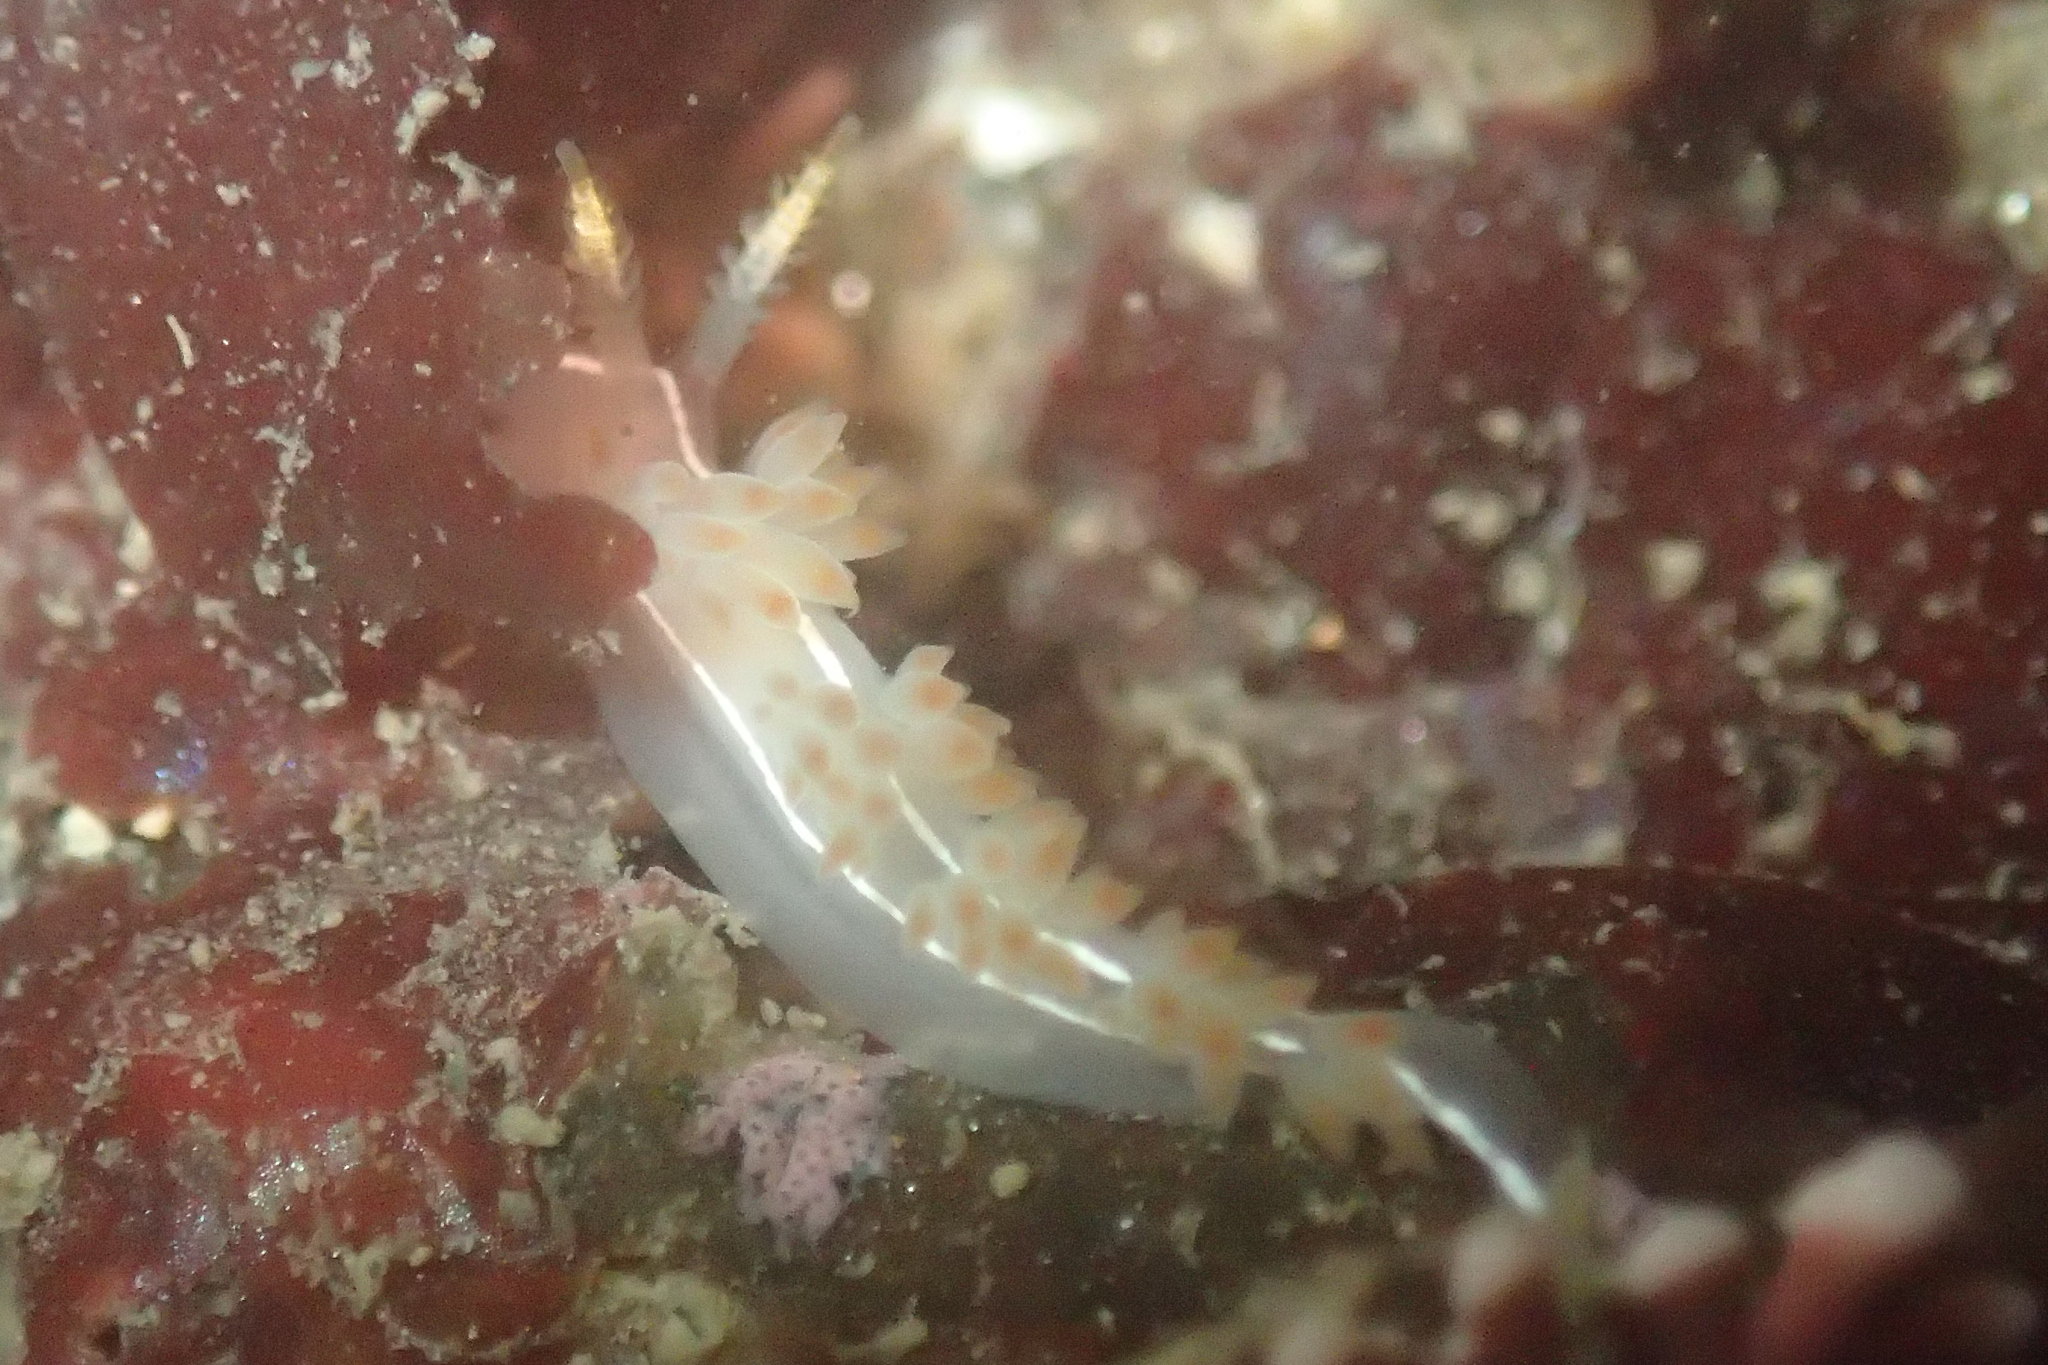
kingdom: Animalia
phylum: Mollusca
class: Gastropoda
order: Nudibranchia
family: Coryphellidae
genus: Coryphella
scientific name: Coryphella trilineata
